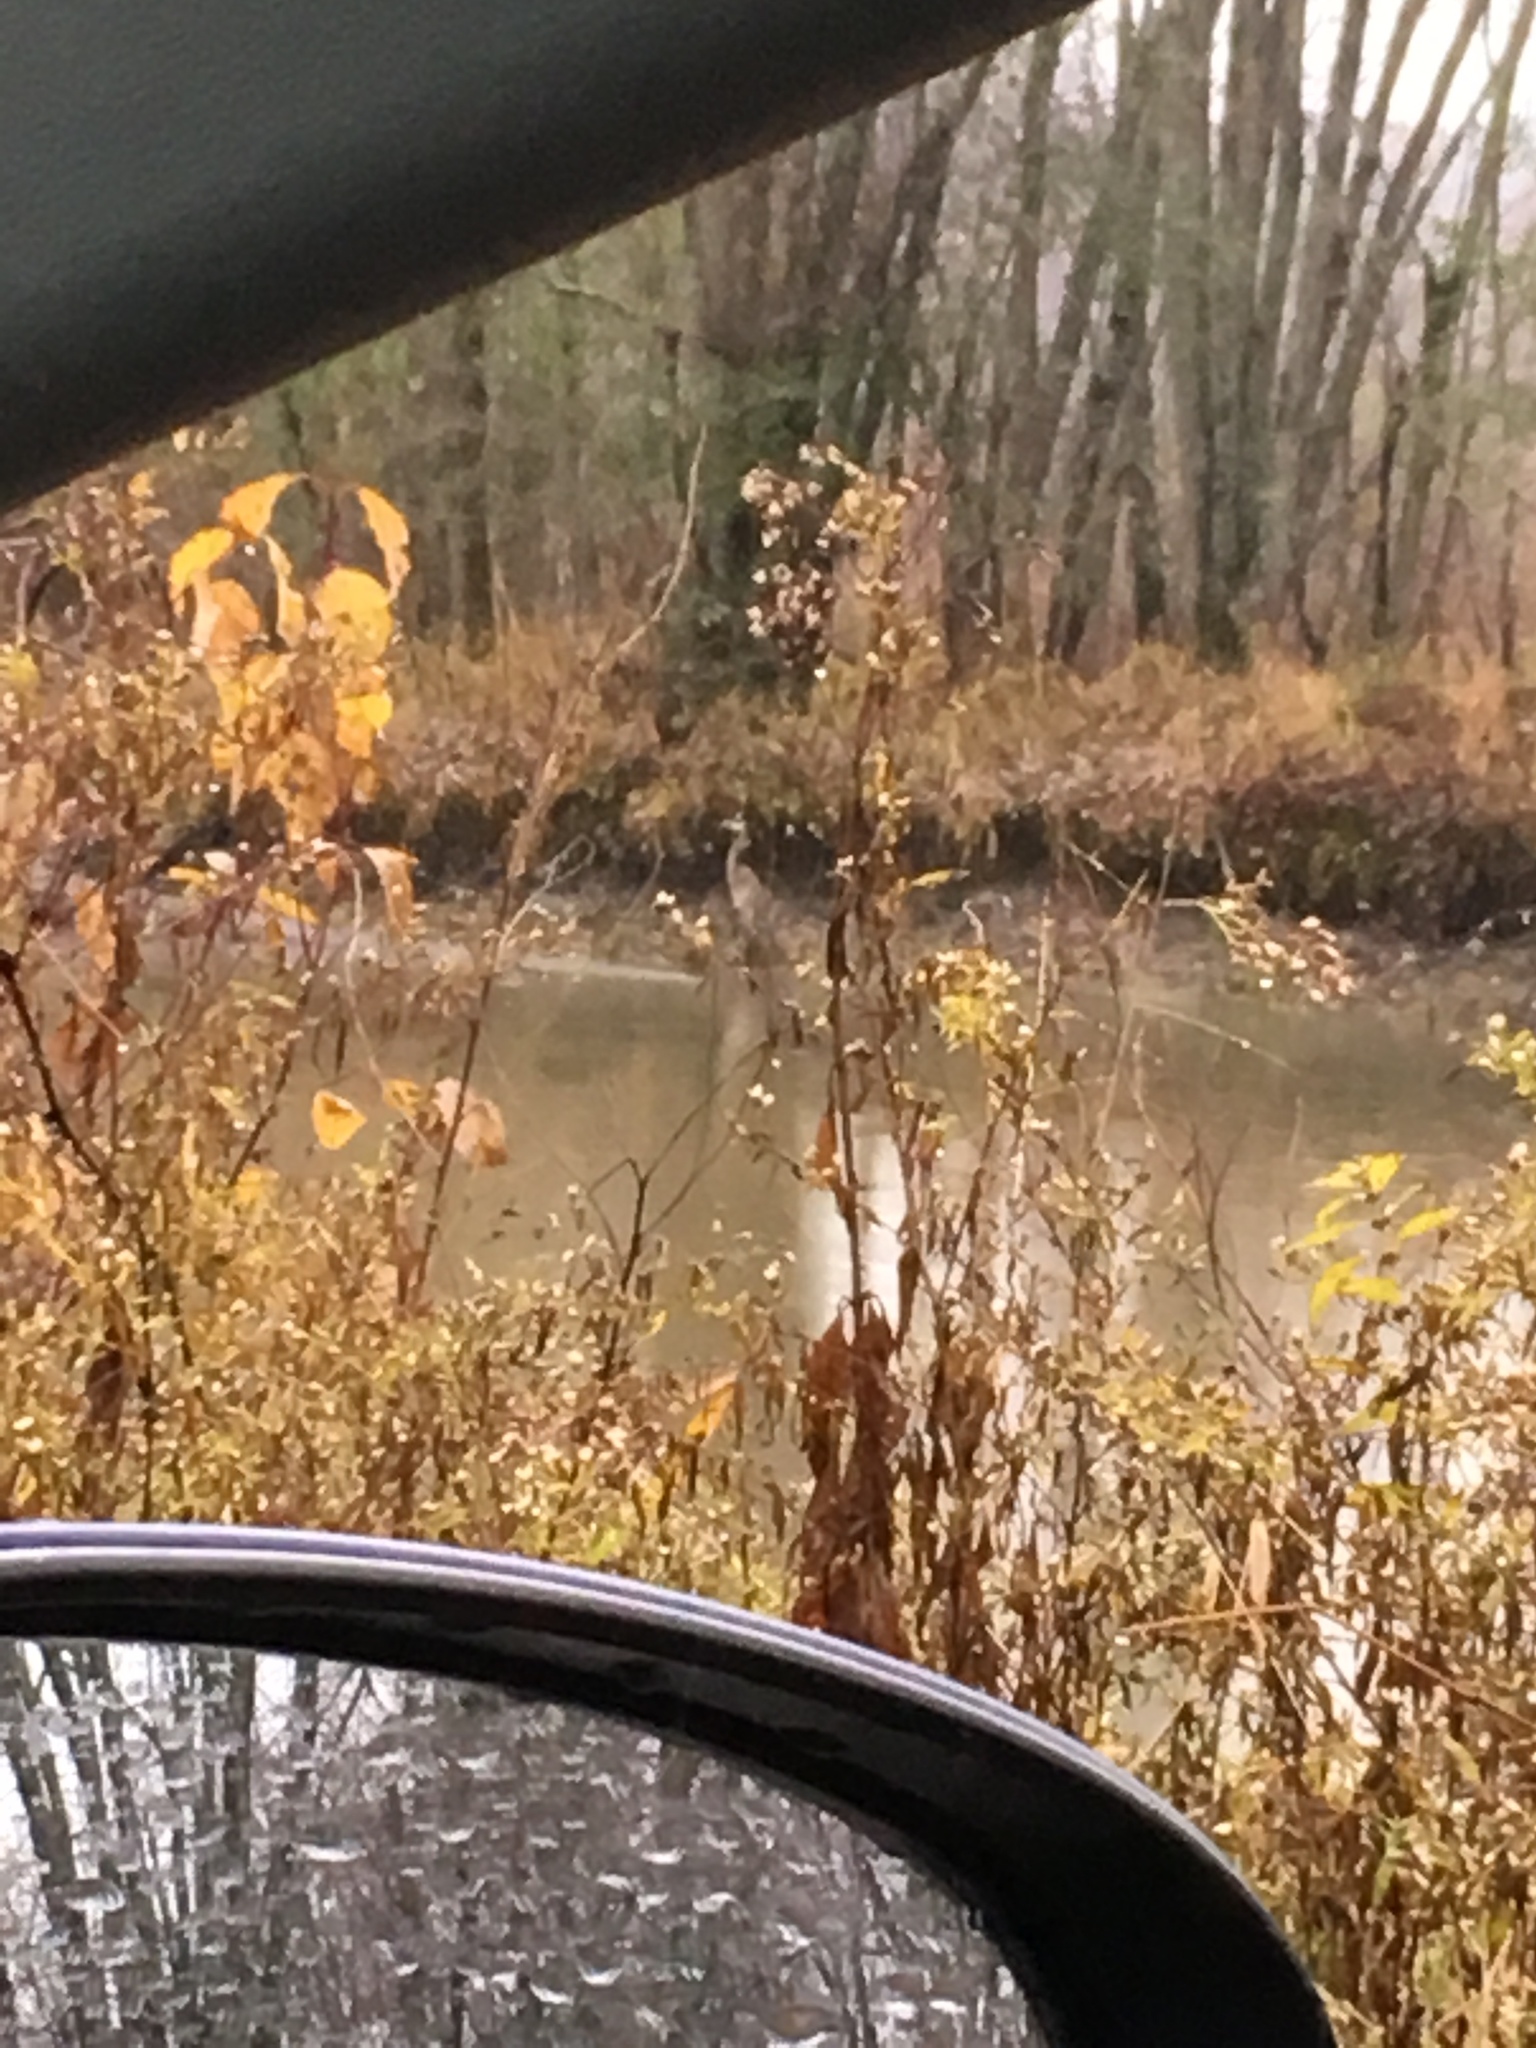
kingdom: Animalia
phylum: Chordata
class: Aves
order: Pelecaniformes
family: Ardeidae
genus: Ardea
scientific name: Ardea herodias
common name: Great blue heron
